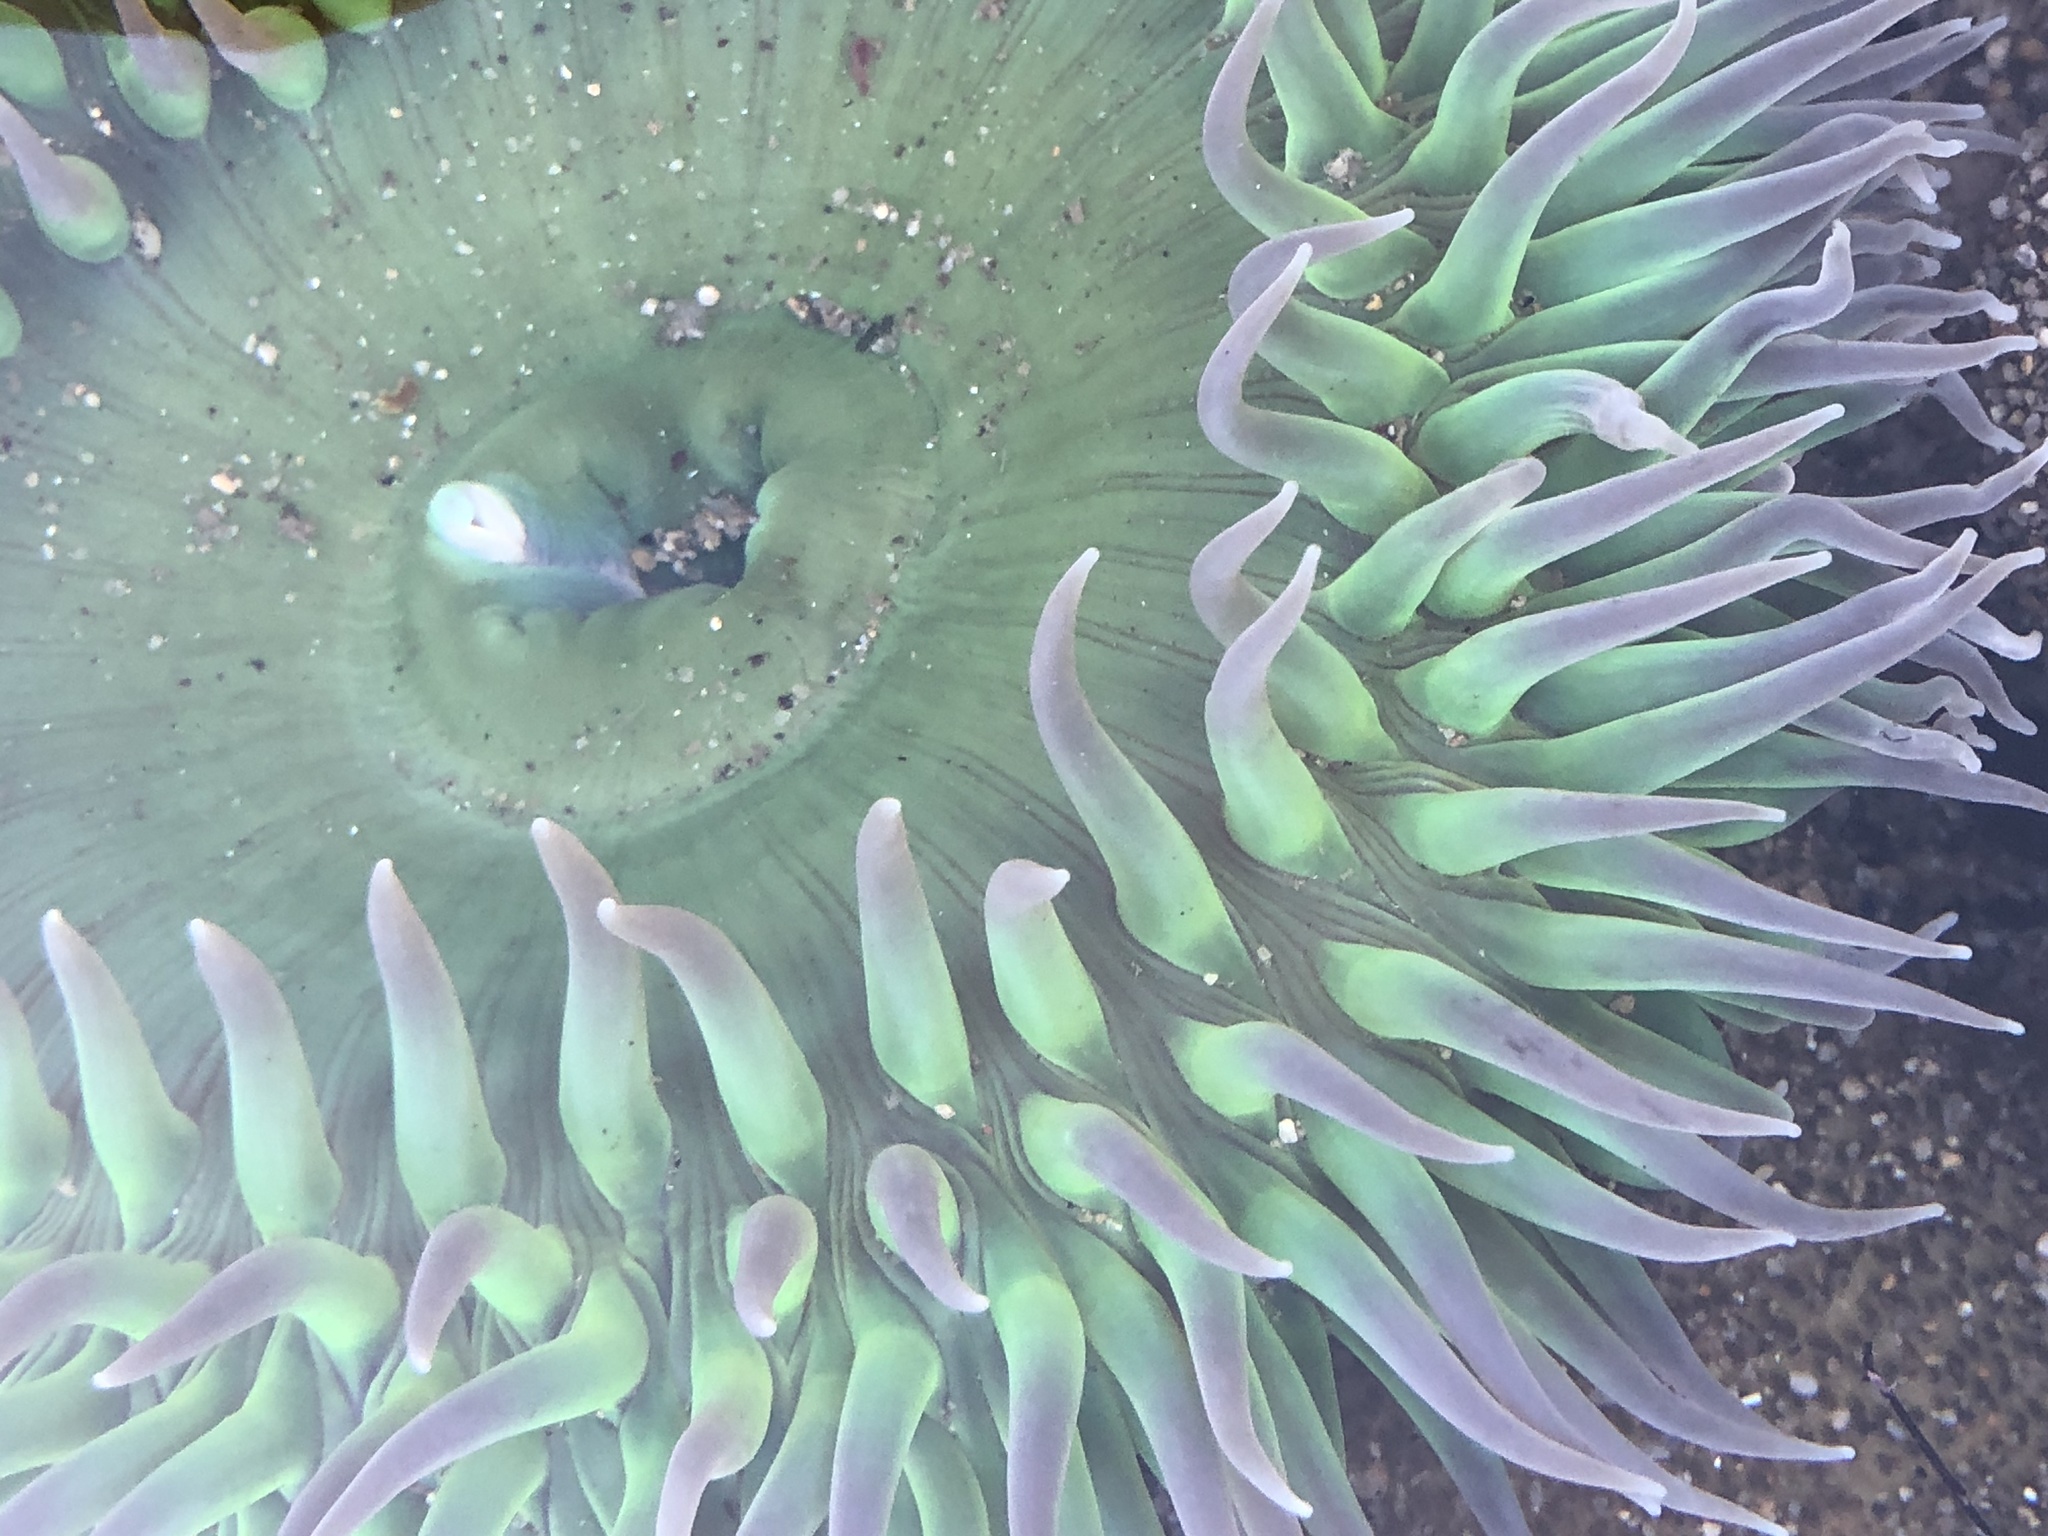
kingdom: Animalia
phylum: Cnidaria
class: Anthozoa
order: Actiniaria
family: Actiniidae
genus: Anthopleura
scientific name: Anthopleura xanthogrammica
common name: Giant green anemone
